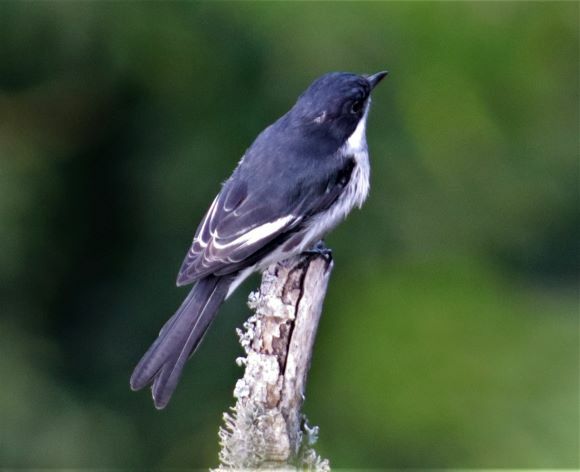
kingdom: Animalia
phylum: Chordata
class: Aves
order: Passeriformes
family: Muscicapidae
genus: Sigelus
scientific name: Sigelus silens
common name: Fiscal flycatcher
